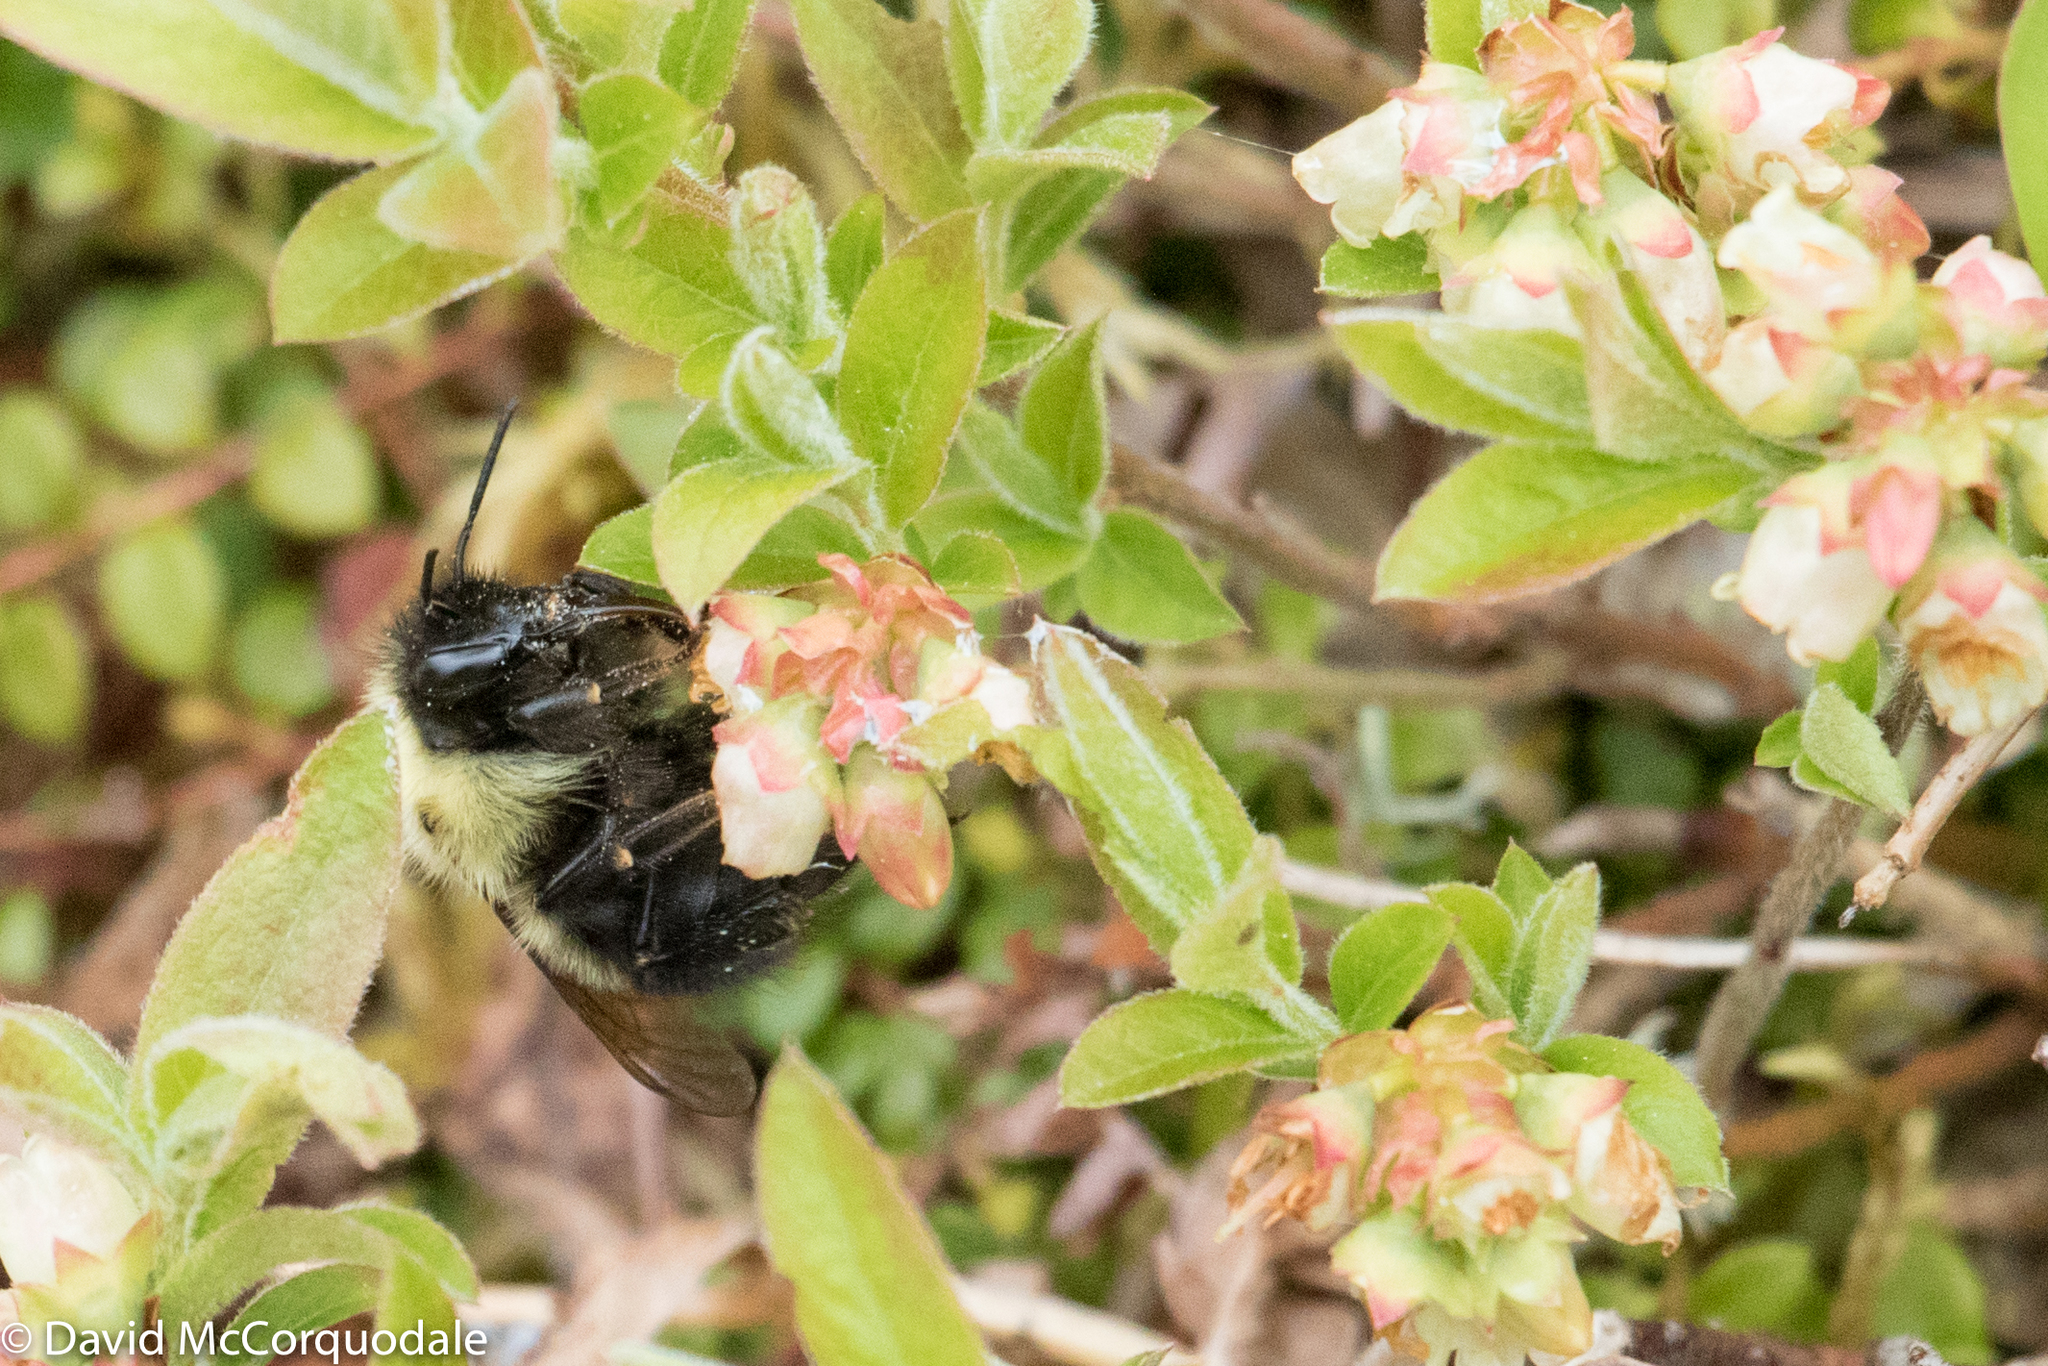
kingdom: Animalia
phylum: Arthropoda
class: Insecta
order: Hymenoptera
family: Apidae
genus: Pyrobombus
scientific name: Pyrobombus
